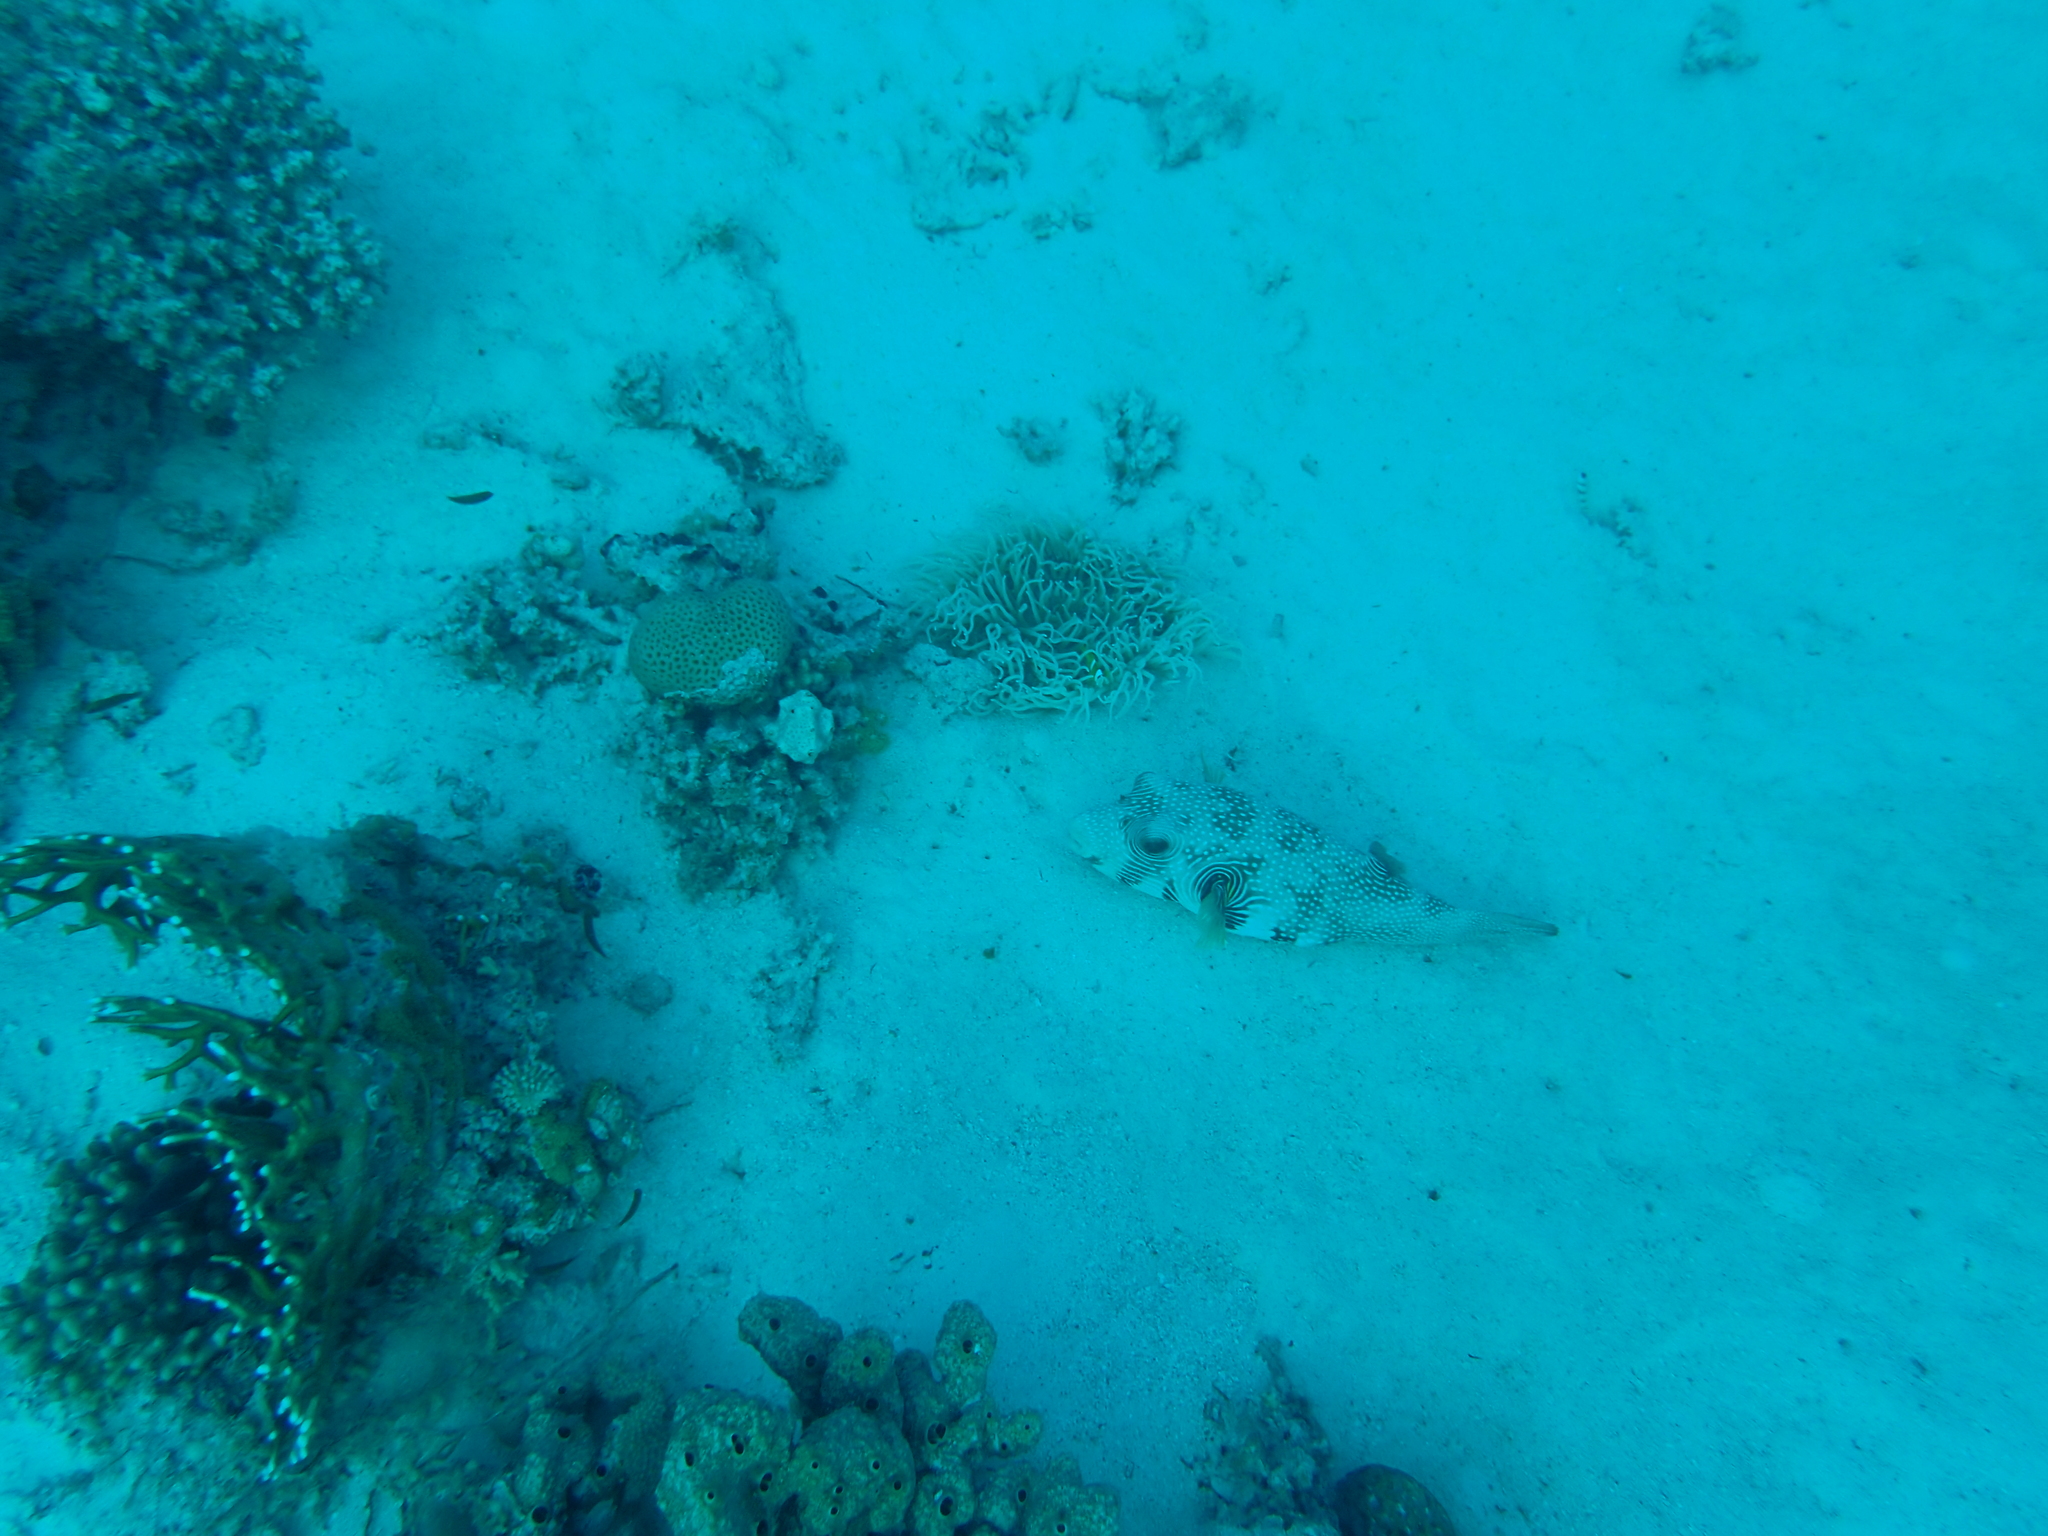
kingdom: Animalia
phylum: Chordata
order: Tetraodontiformes
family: Tetraodontidae
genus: Arothron
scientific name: Arothron hispidus
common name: Stripebelly puffer
